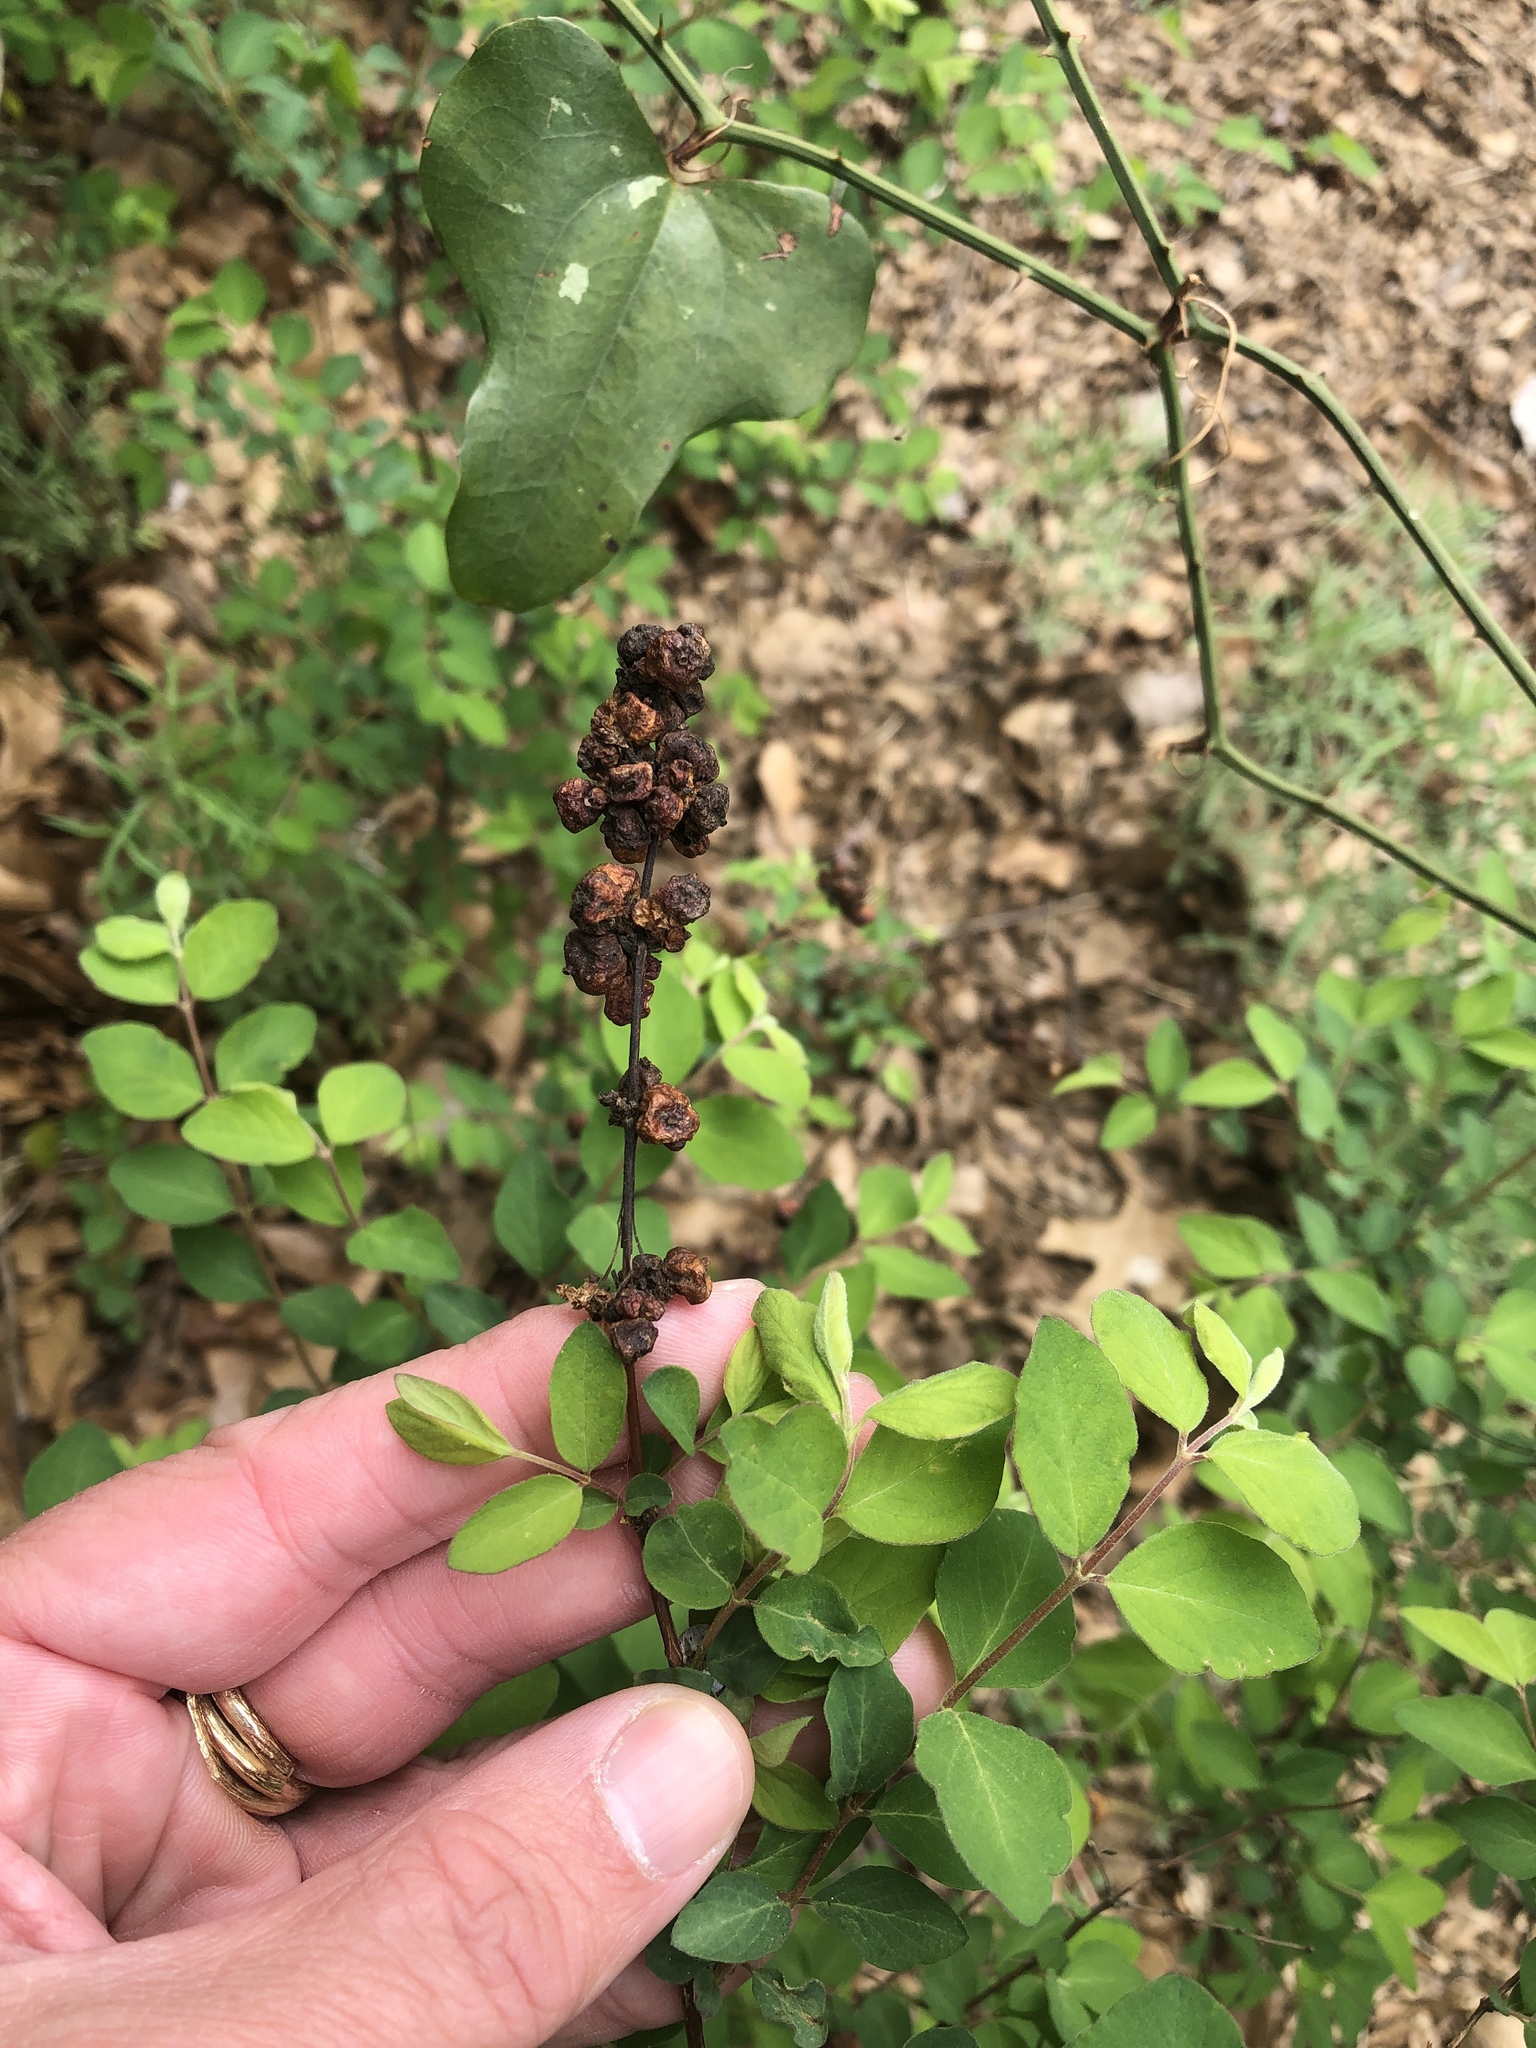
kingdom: Plantae
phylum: Tracheophyta
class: Magnoliopsida
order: Dipsacales
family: Caprifoliaceae
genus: Symphoricarpos
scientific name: Symphoricarpos orbiculatus
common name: Coralberry
